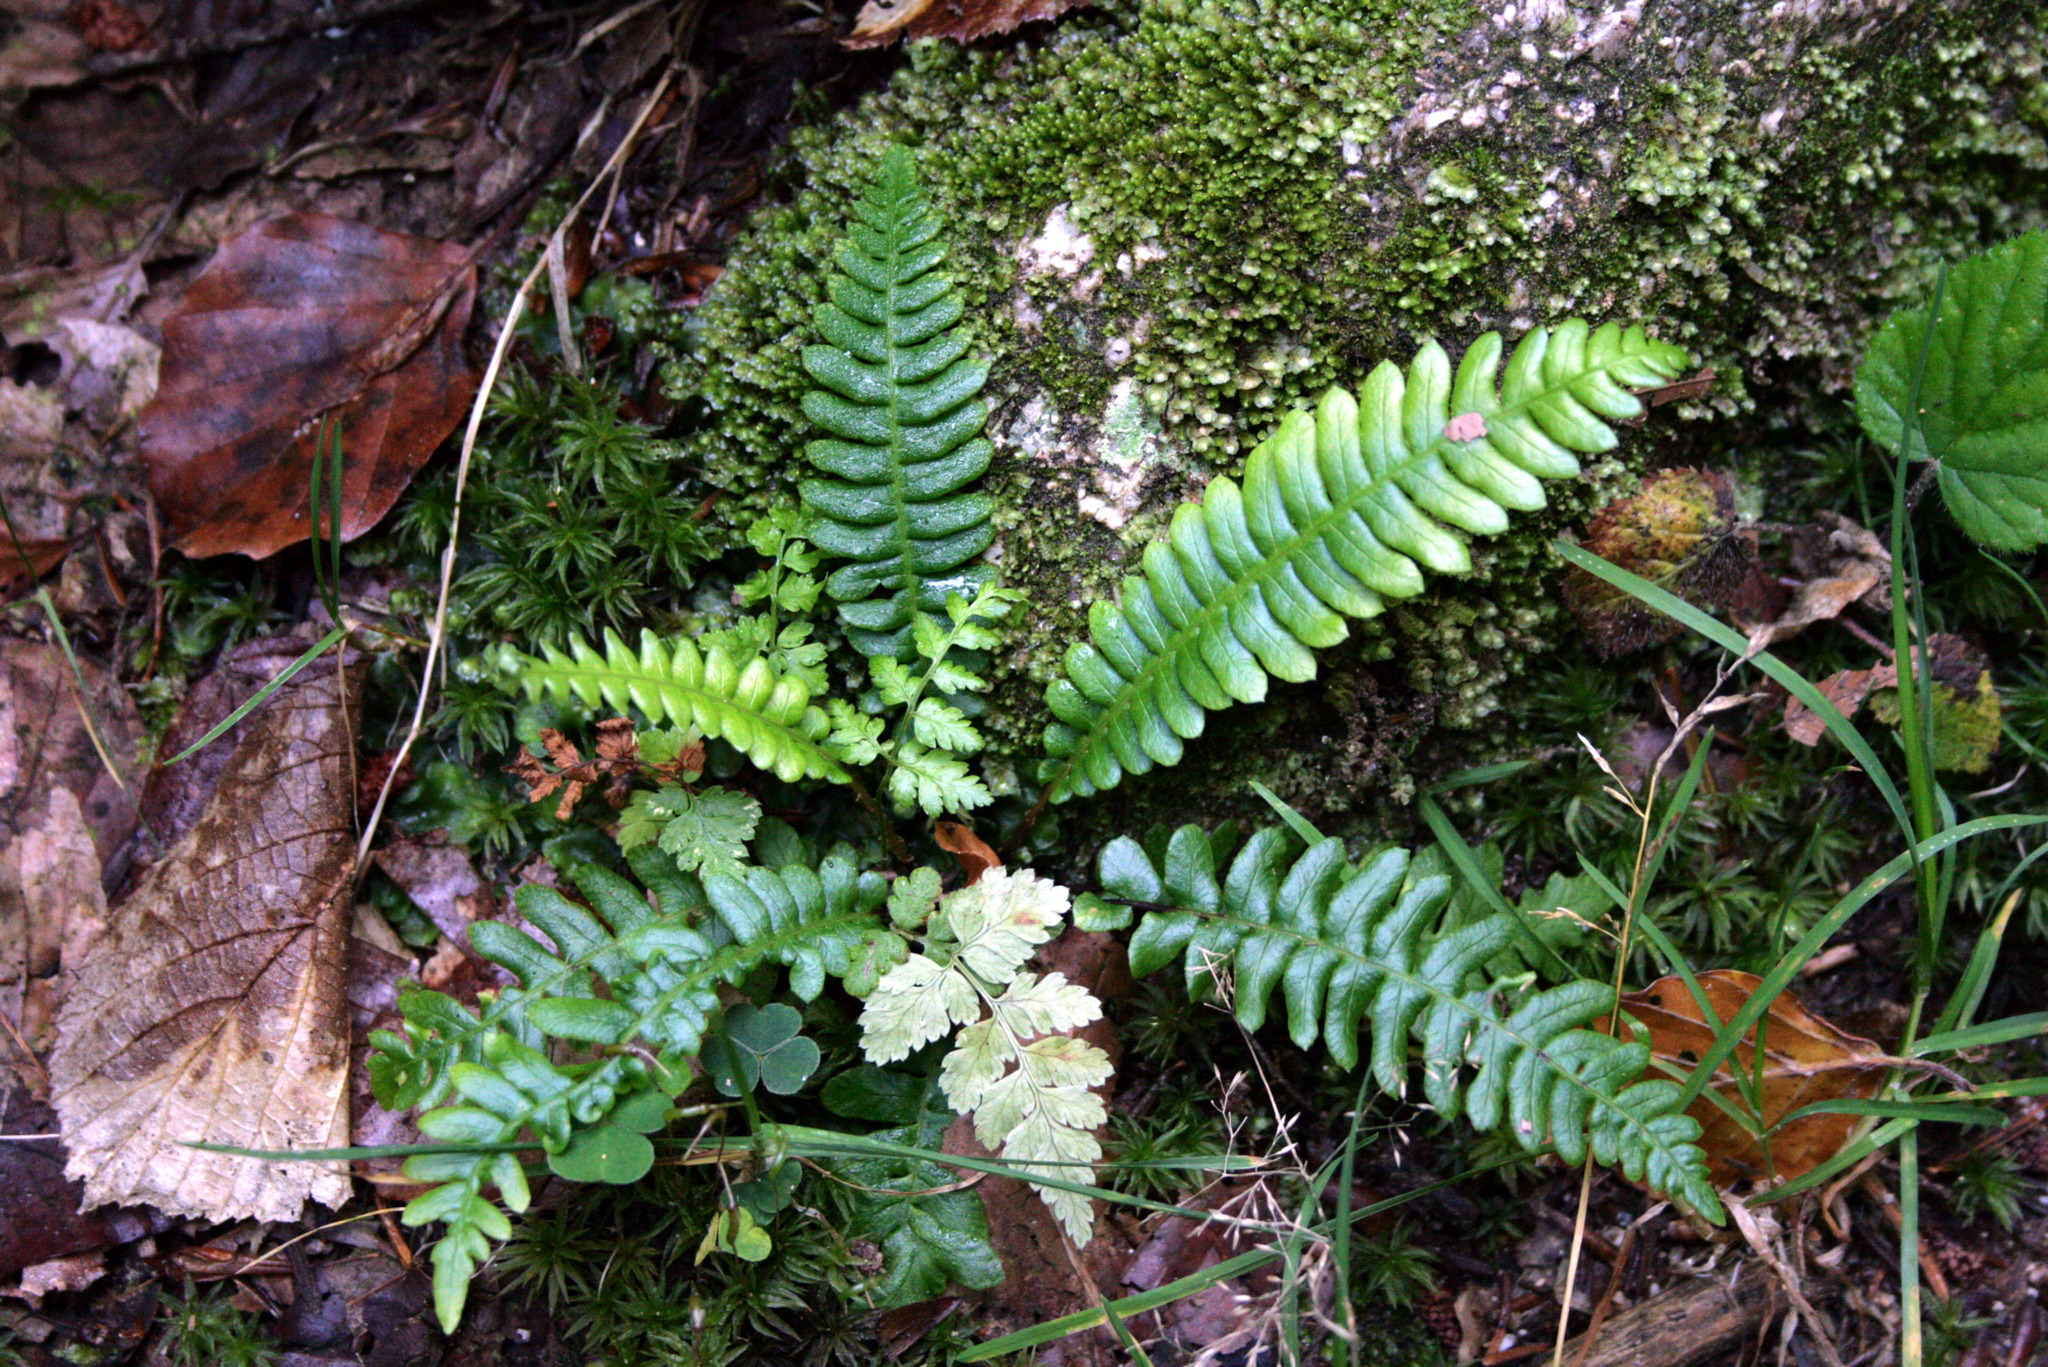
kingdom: Plantae
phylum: Tracheophyta
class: Polypodiopsida
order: Polypodiales
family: Blechnaceae
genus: Struthiopteris
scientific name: Struthiopteris spicant
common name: Deer fern
